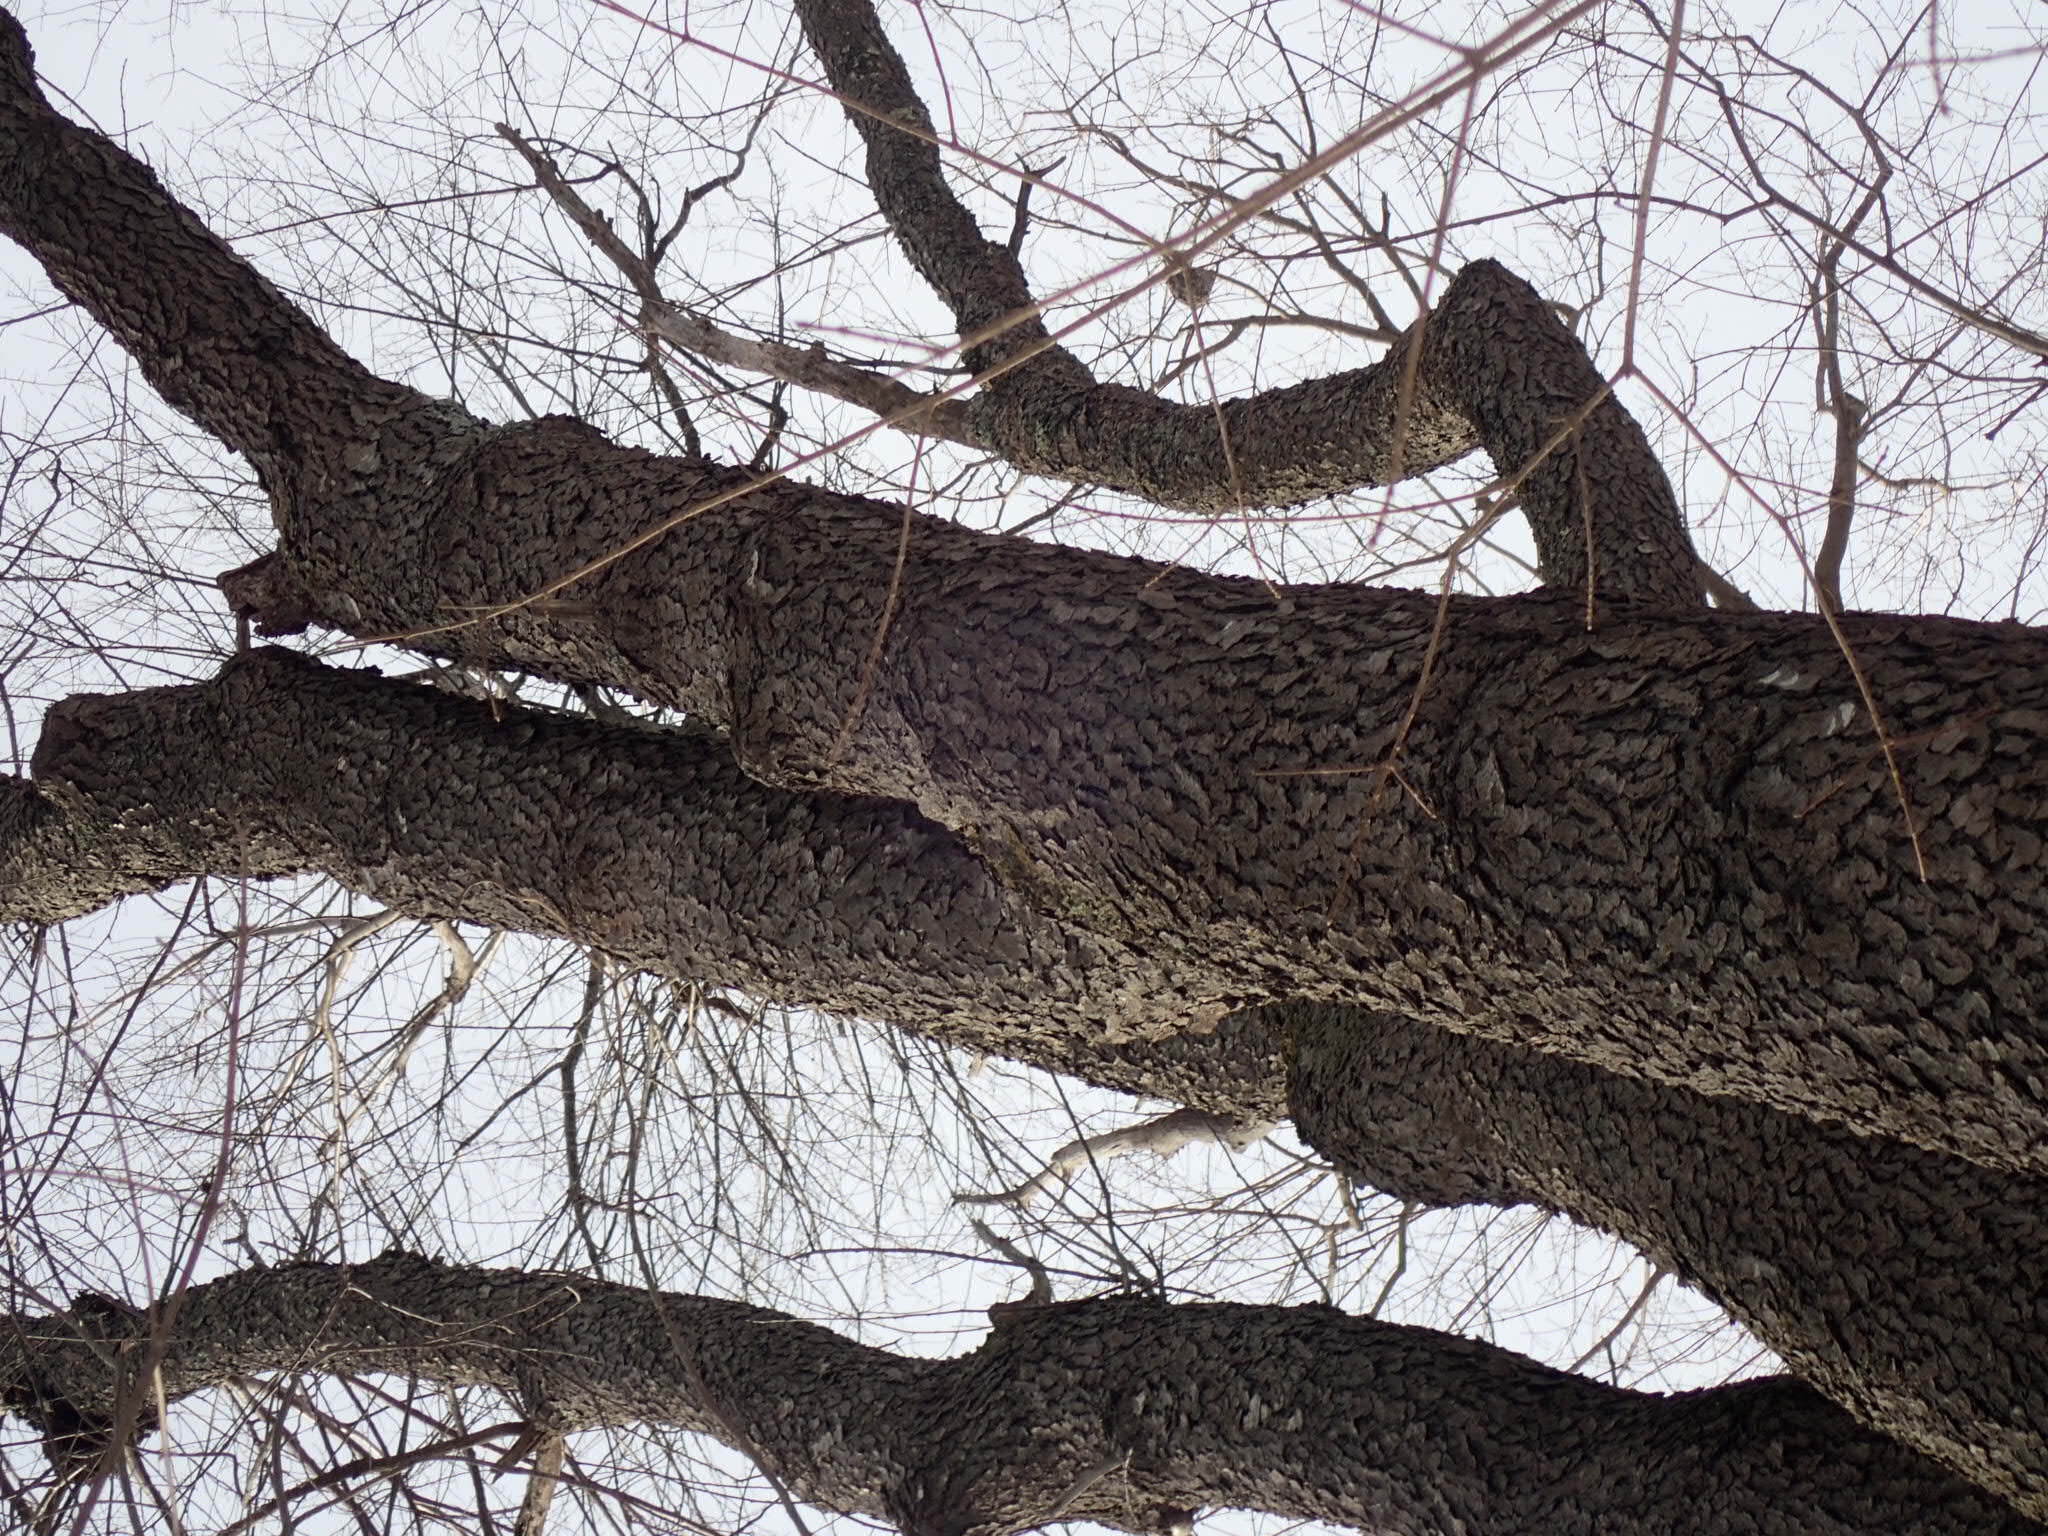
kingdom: Plantae
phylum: Tracheophyta
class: Magnoliopsida
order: Rosales
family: Rosaceae
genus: Prunus
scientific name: Prunus serotina
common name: Black cherry
